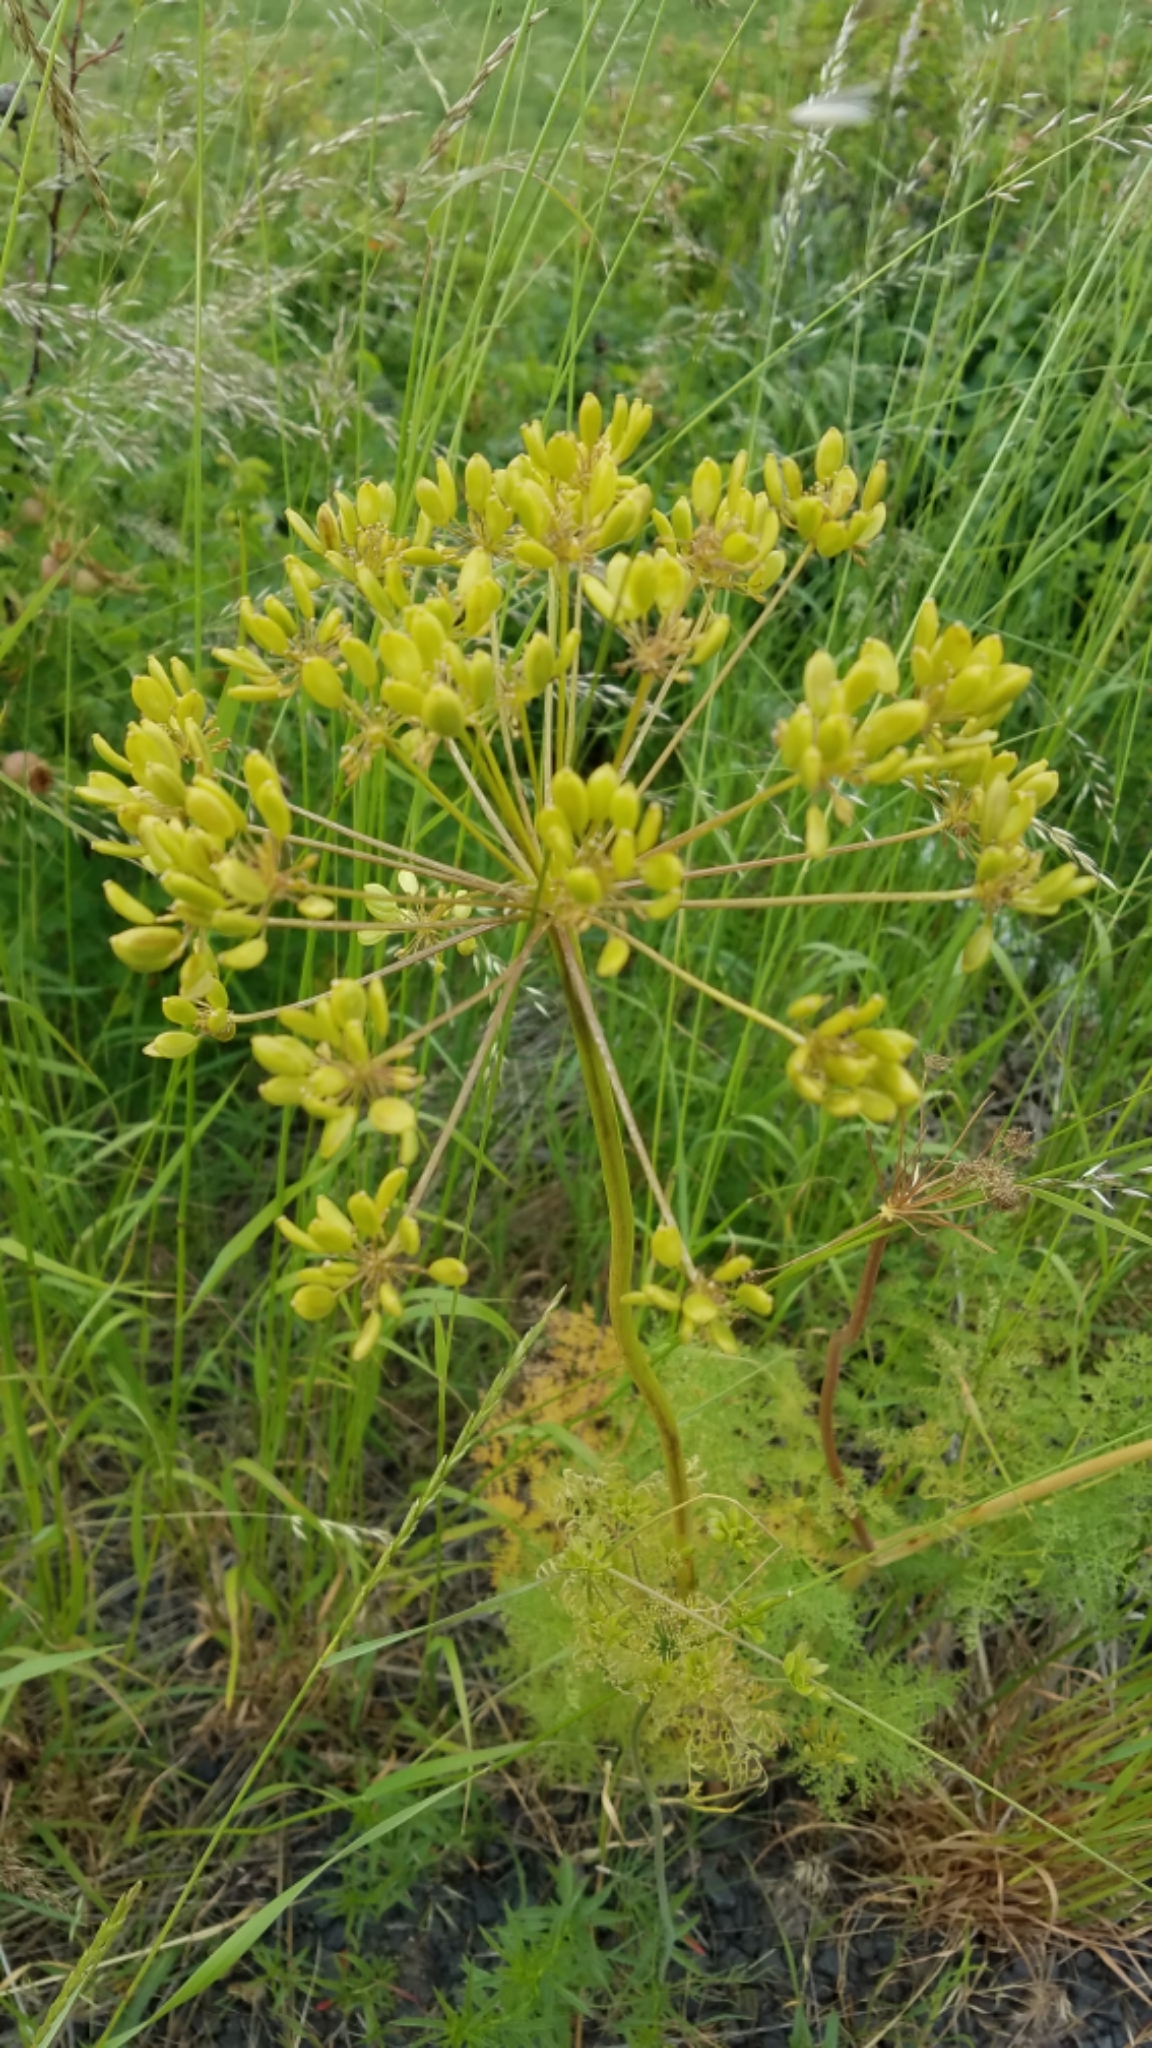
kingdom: Plantae
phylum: Tracheophyta
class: Magnoliopsida
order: Apiales
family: Apiaceae
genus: Lomatium
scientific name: Lomatium multifidum
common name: Carrot-leaved biscuitroot
